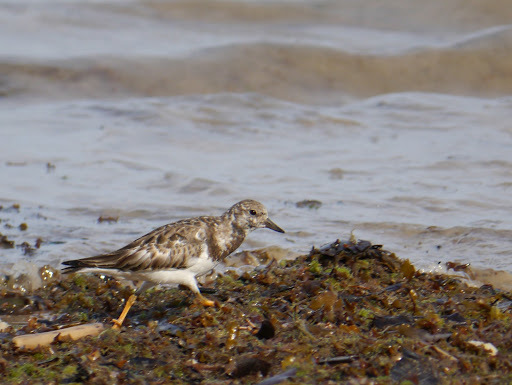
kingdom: Animalia
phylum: Chordata
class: Aves
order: Charadriiformes
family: Scolopacidae
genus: Arenaria
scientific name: Arenaria interpres
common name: Ruddy turnstone
